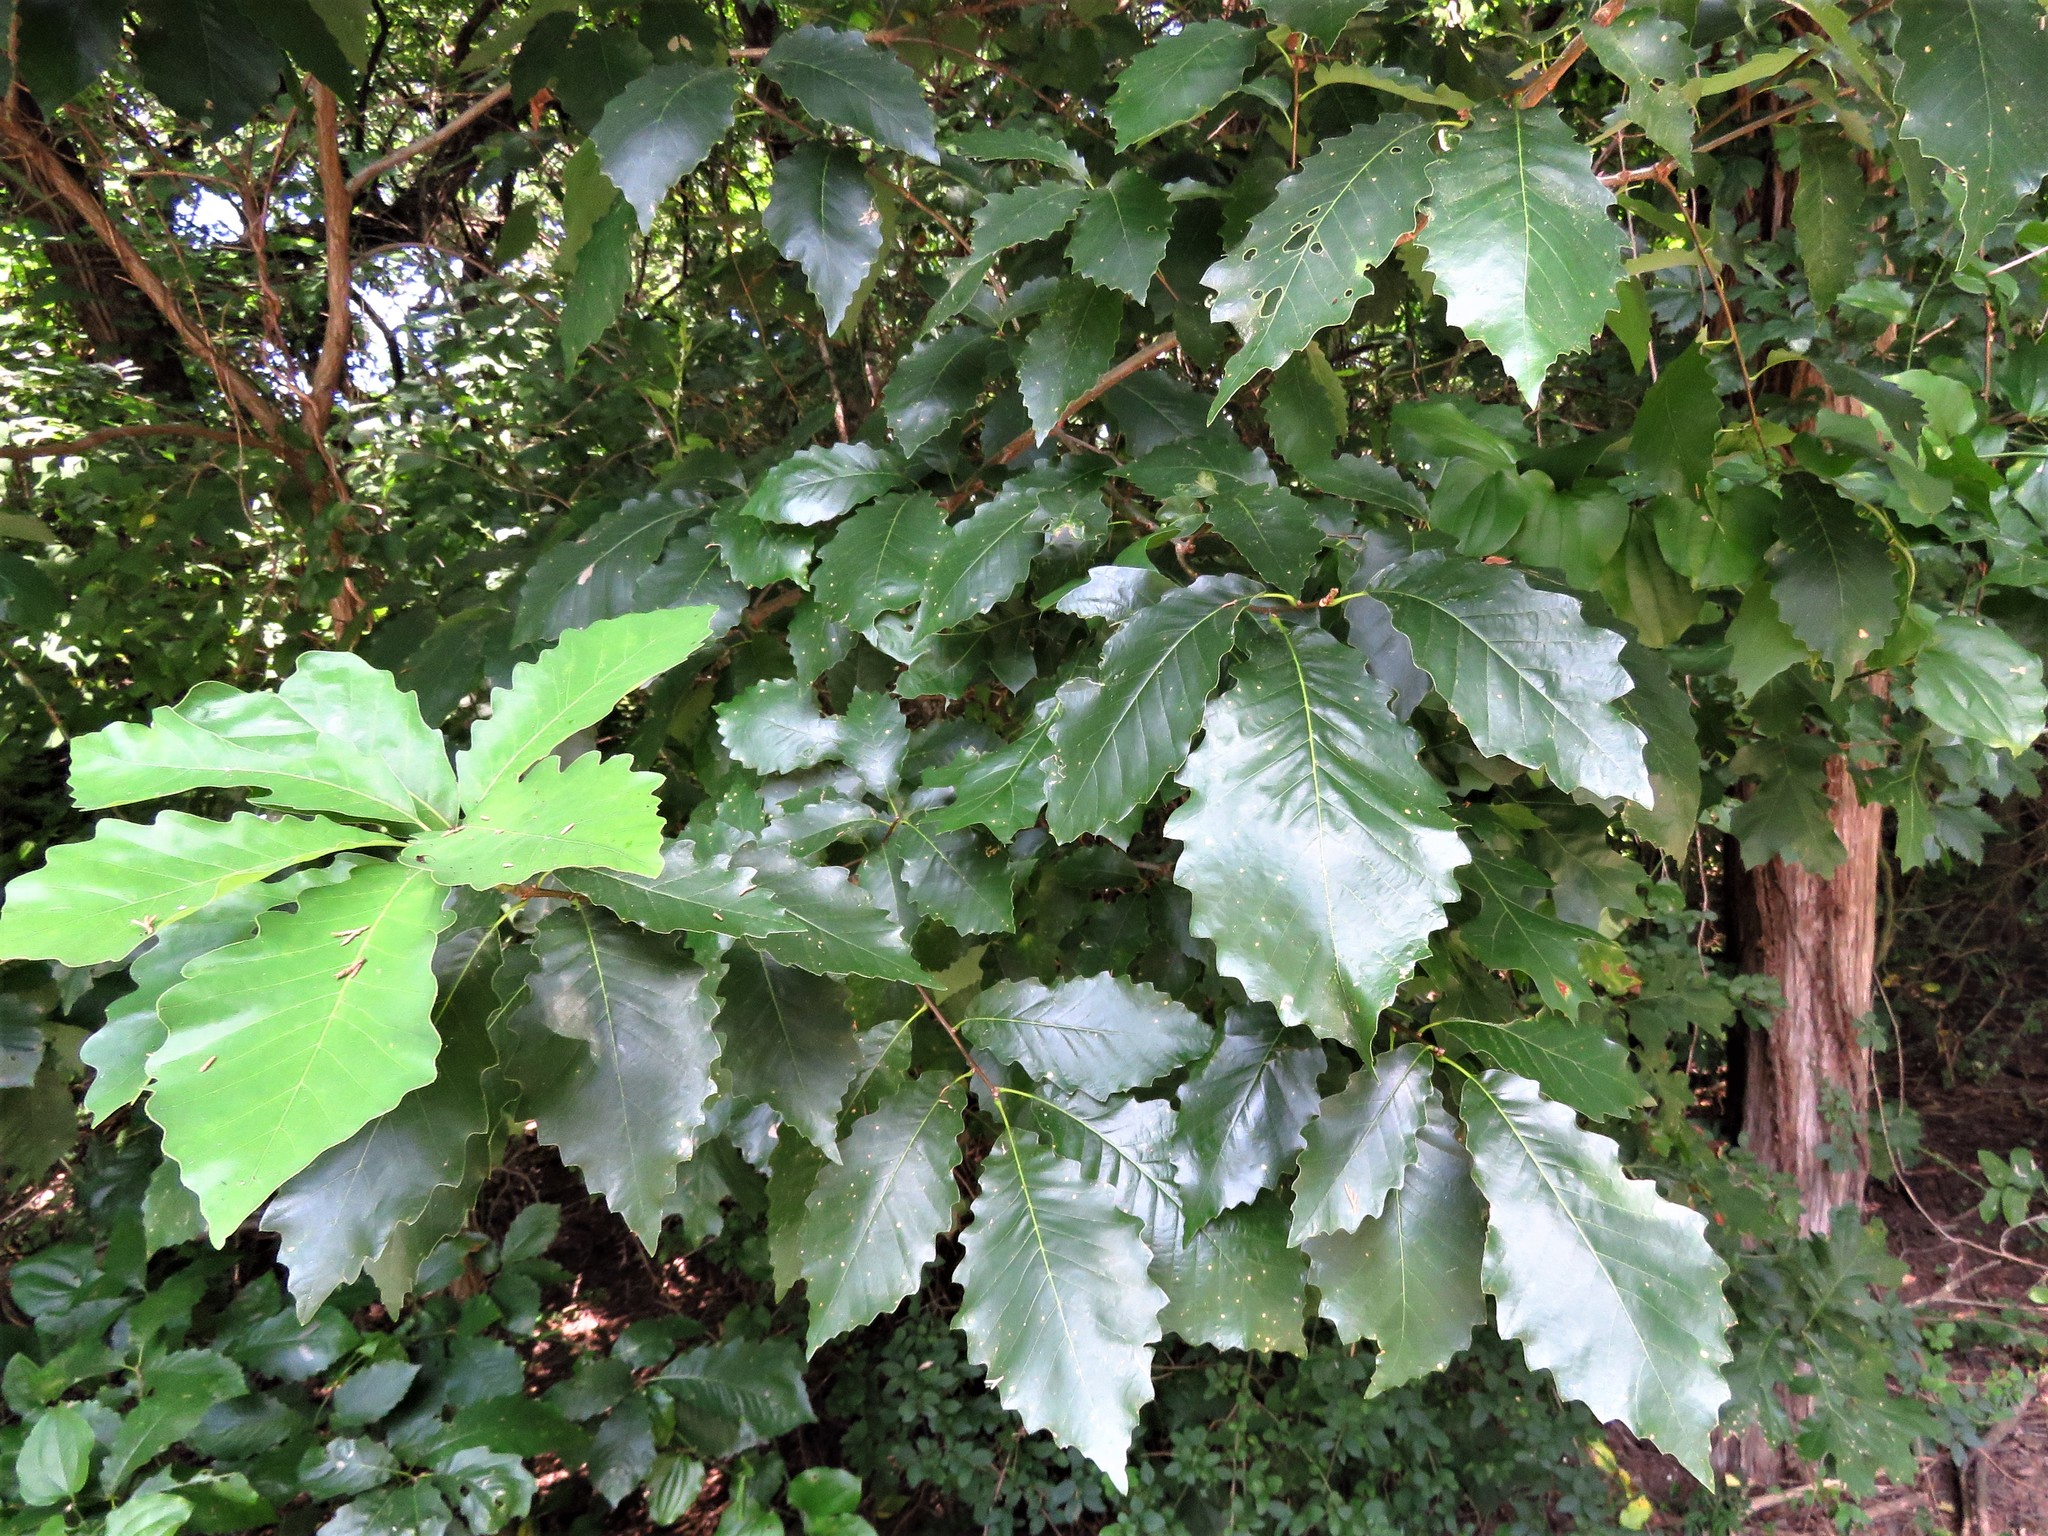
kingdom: Plantae
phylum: Tracheophyta
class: Magnoliopsida
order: Fagales
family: Fagaceae
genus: Quercus
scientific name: Quercus muehlenbergii
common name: Chinkapin oak
